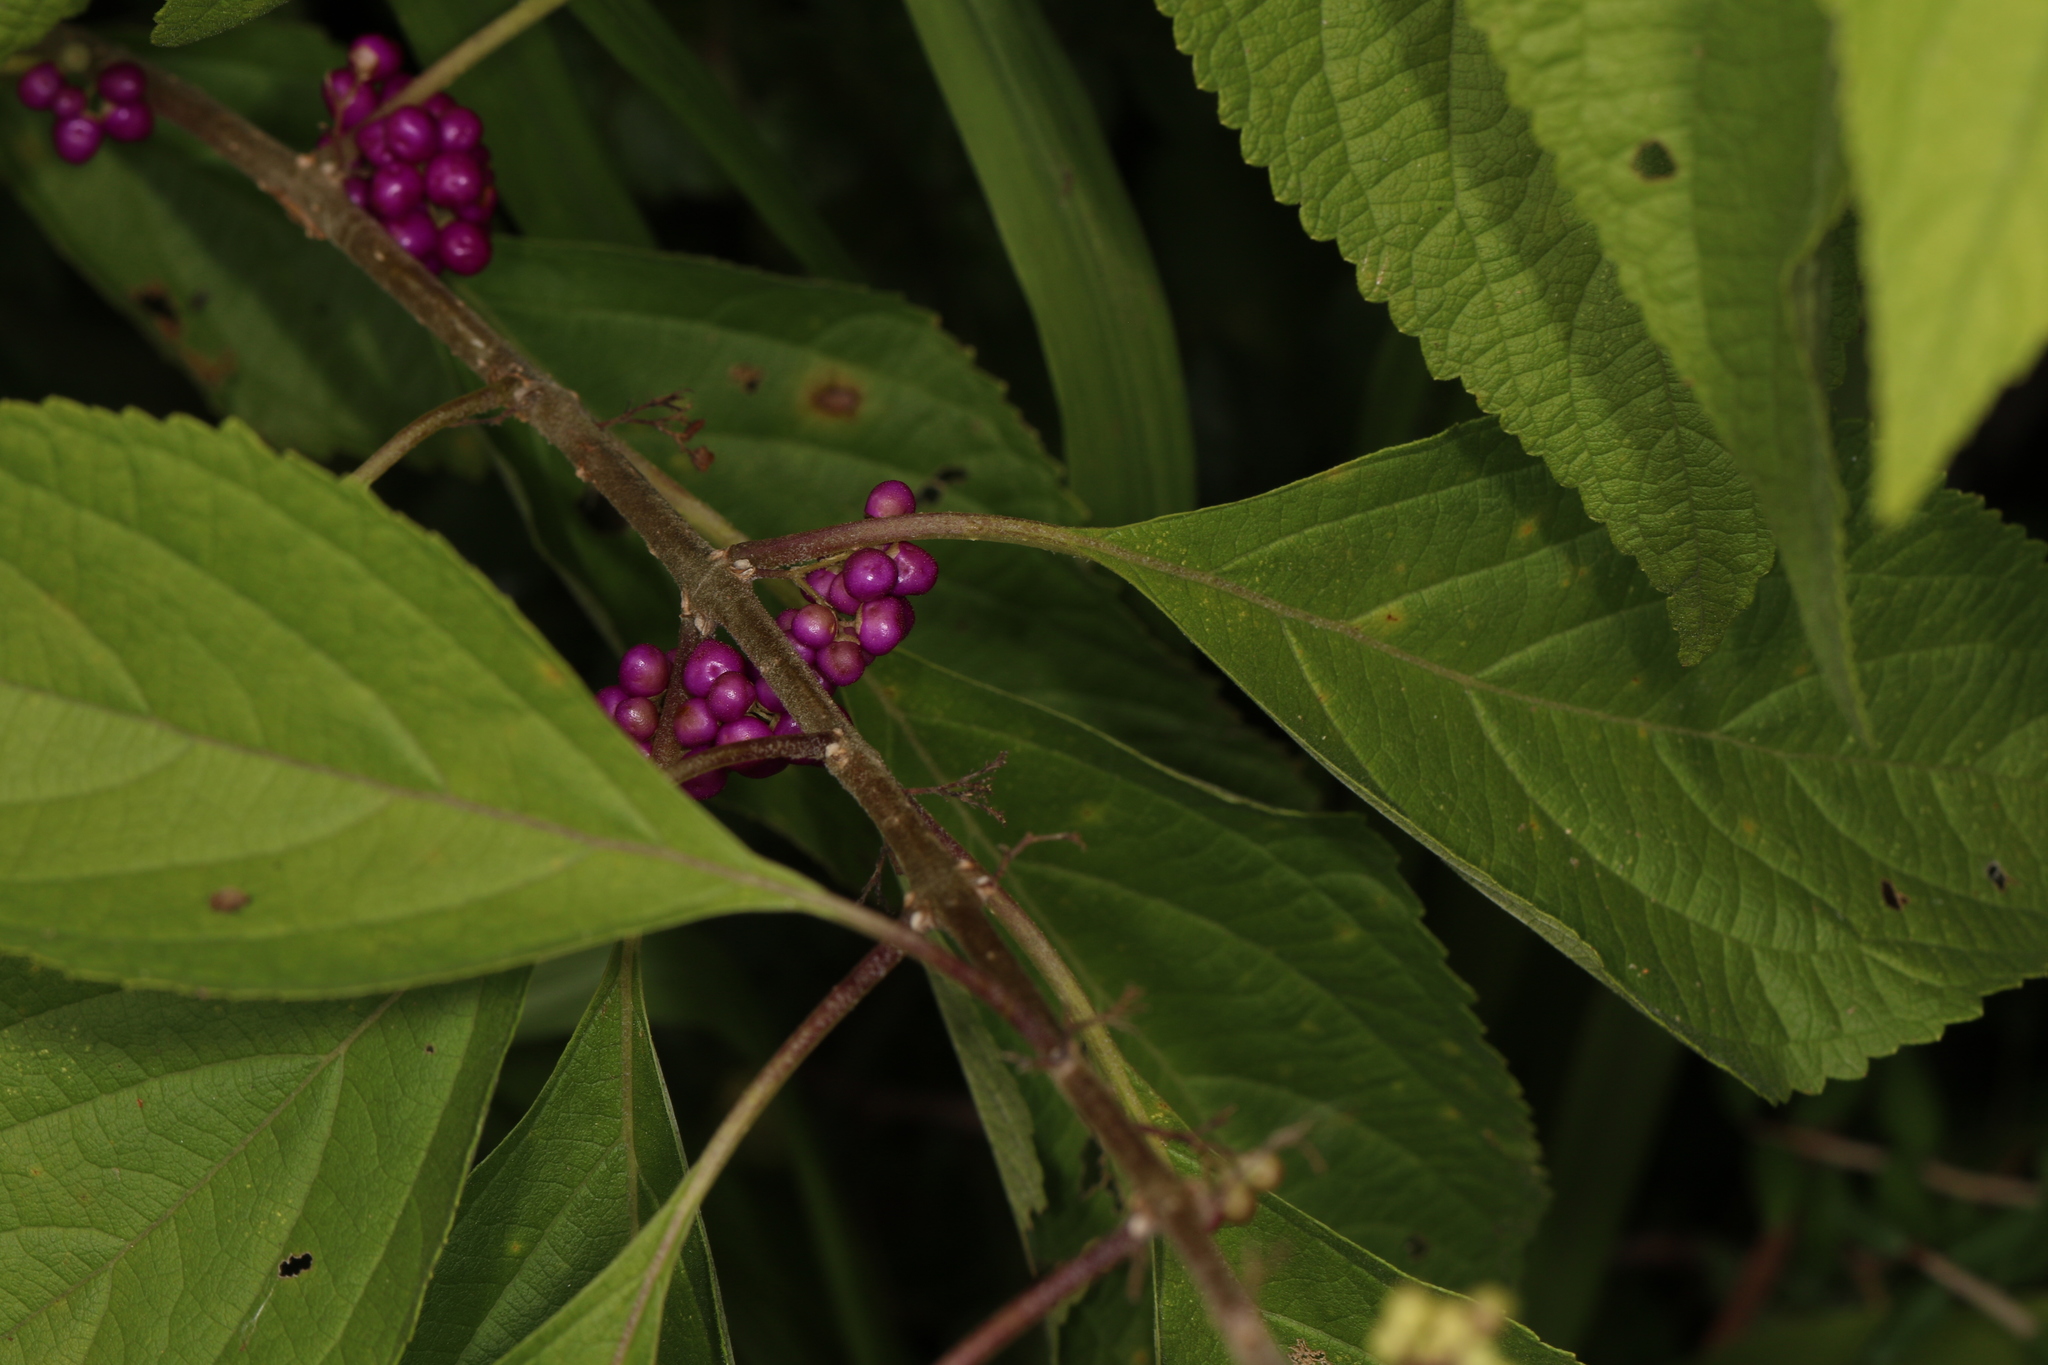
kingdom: Plantae
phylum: Tracheophyta
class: Magnoliopsida
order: Lamiales
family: Lamiaceae
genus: Callicarpa
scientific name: Callicarpa americana
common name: American beautyberry
